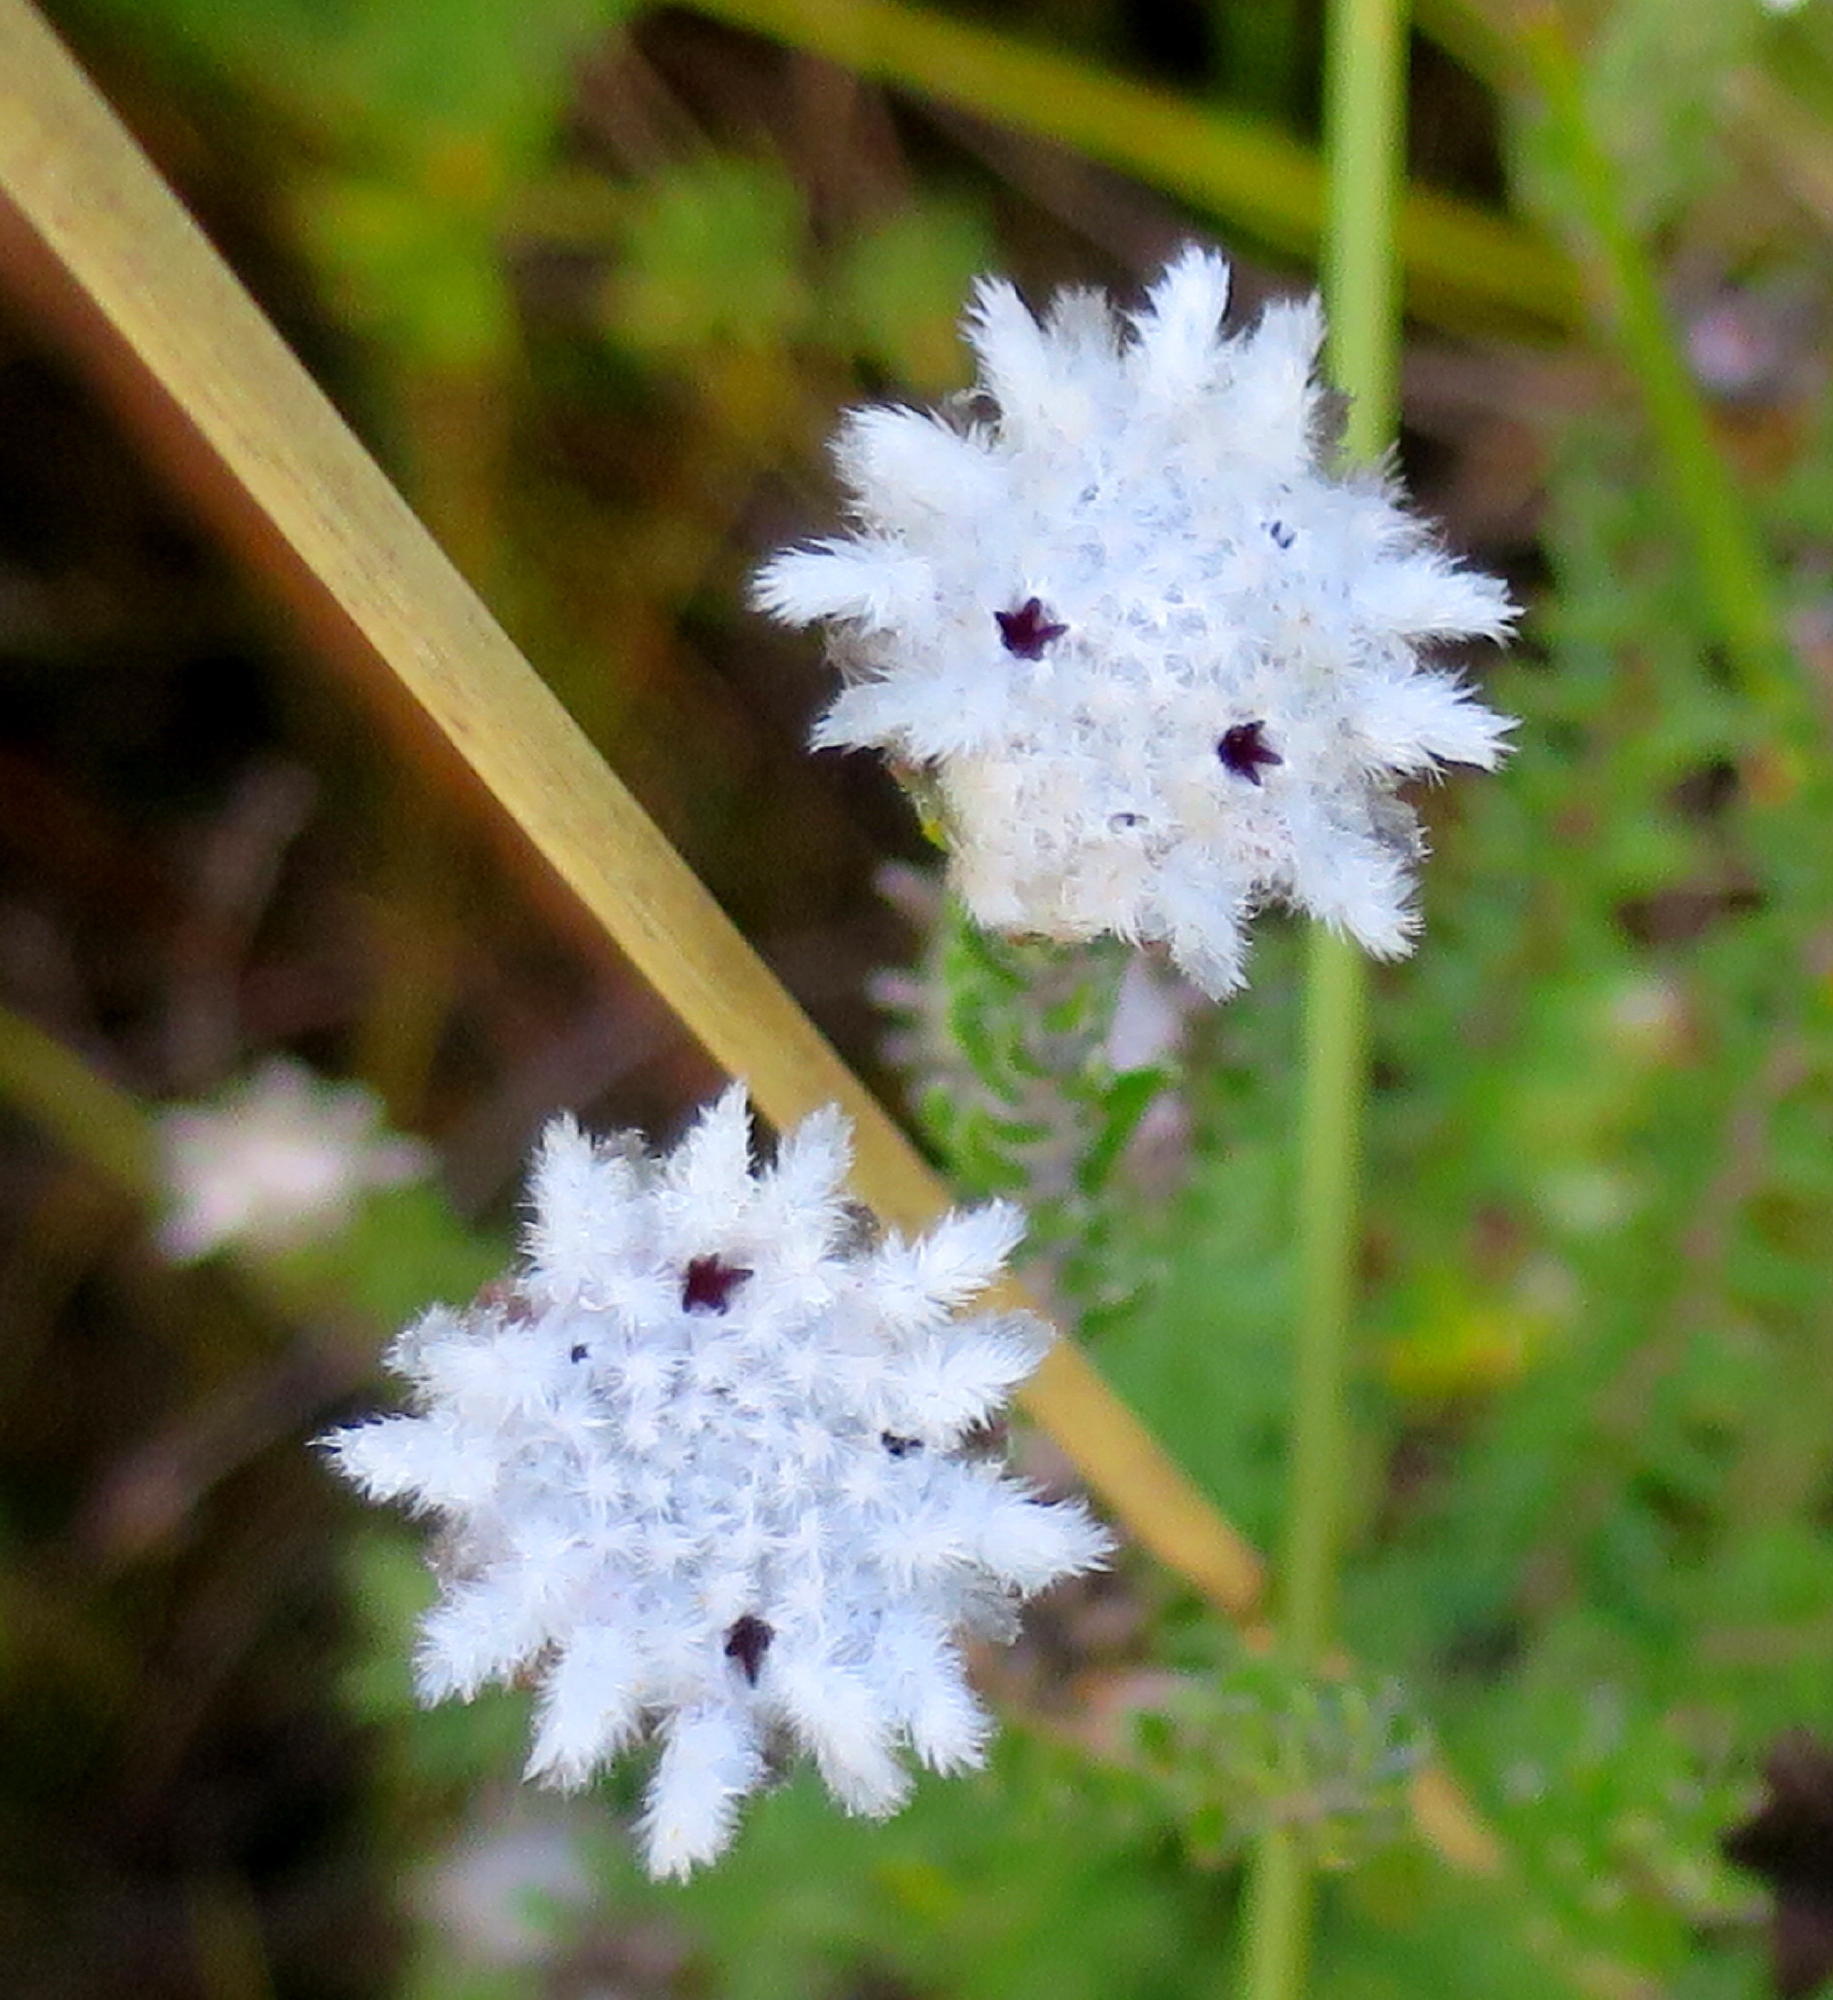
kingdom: Plantae
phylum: Tracheophyta
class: Magnoliopsida
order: Rosales
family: Rhamnaceae
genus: Phylica
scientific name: Phylica curvifolia
